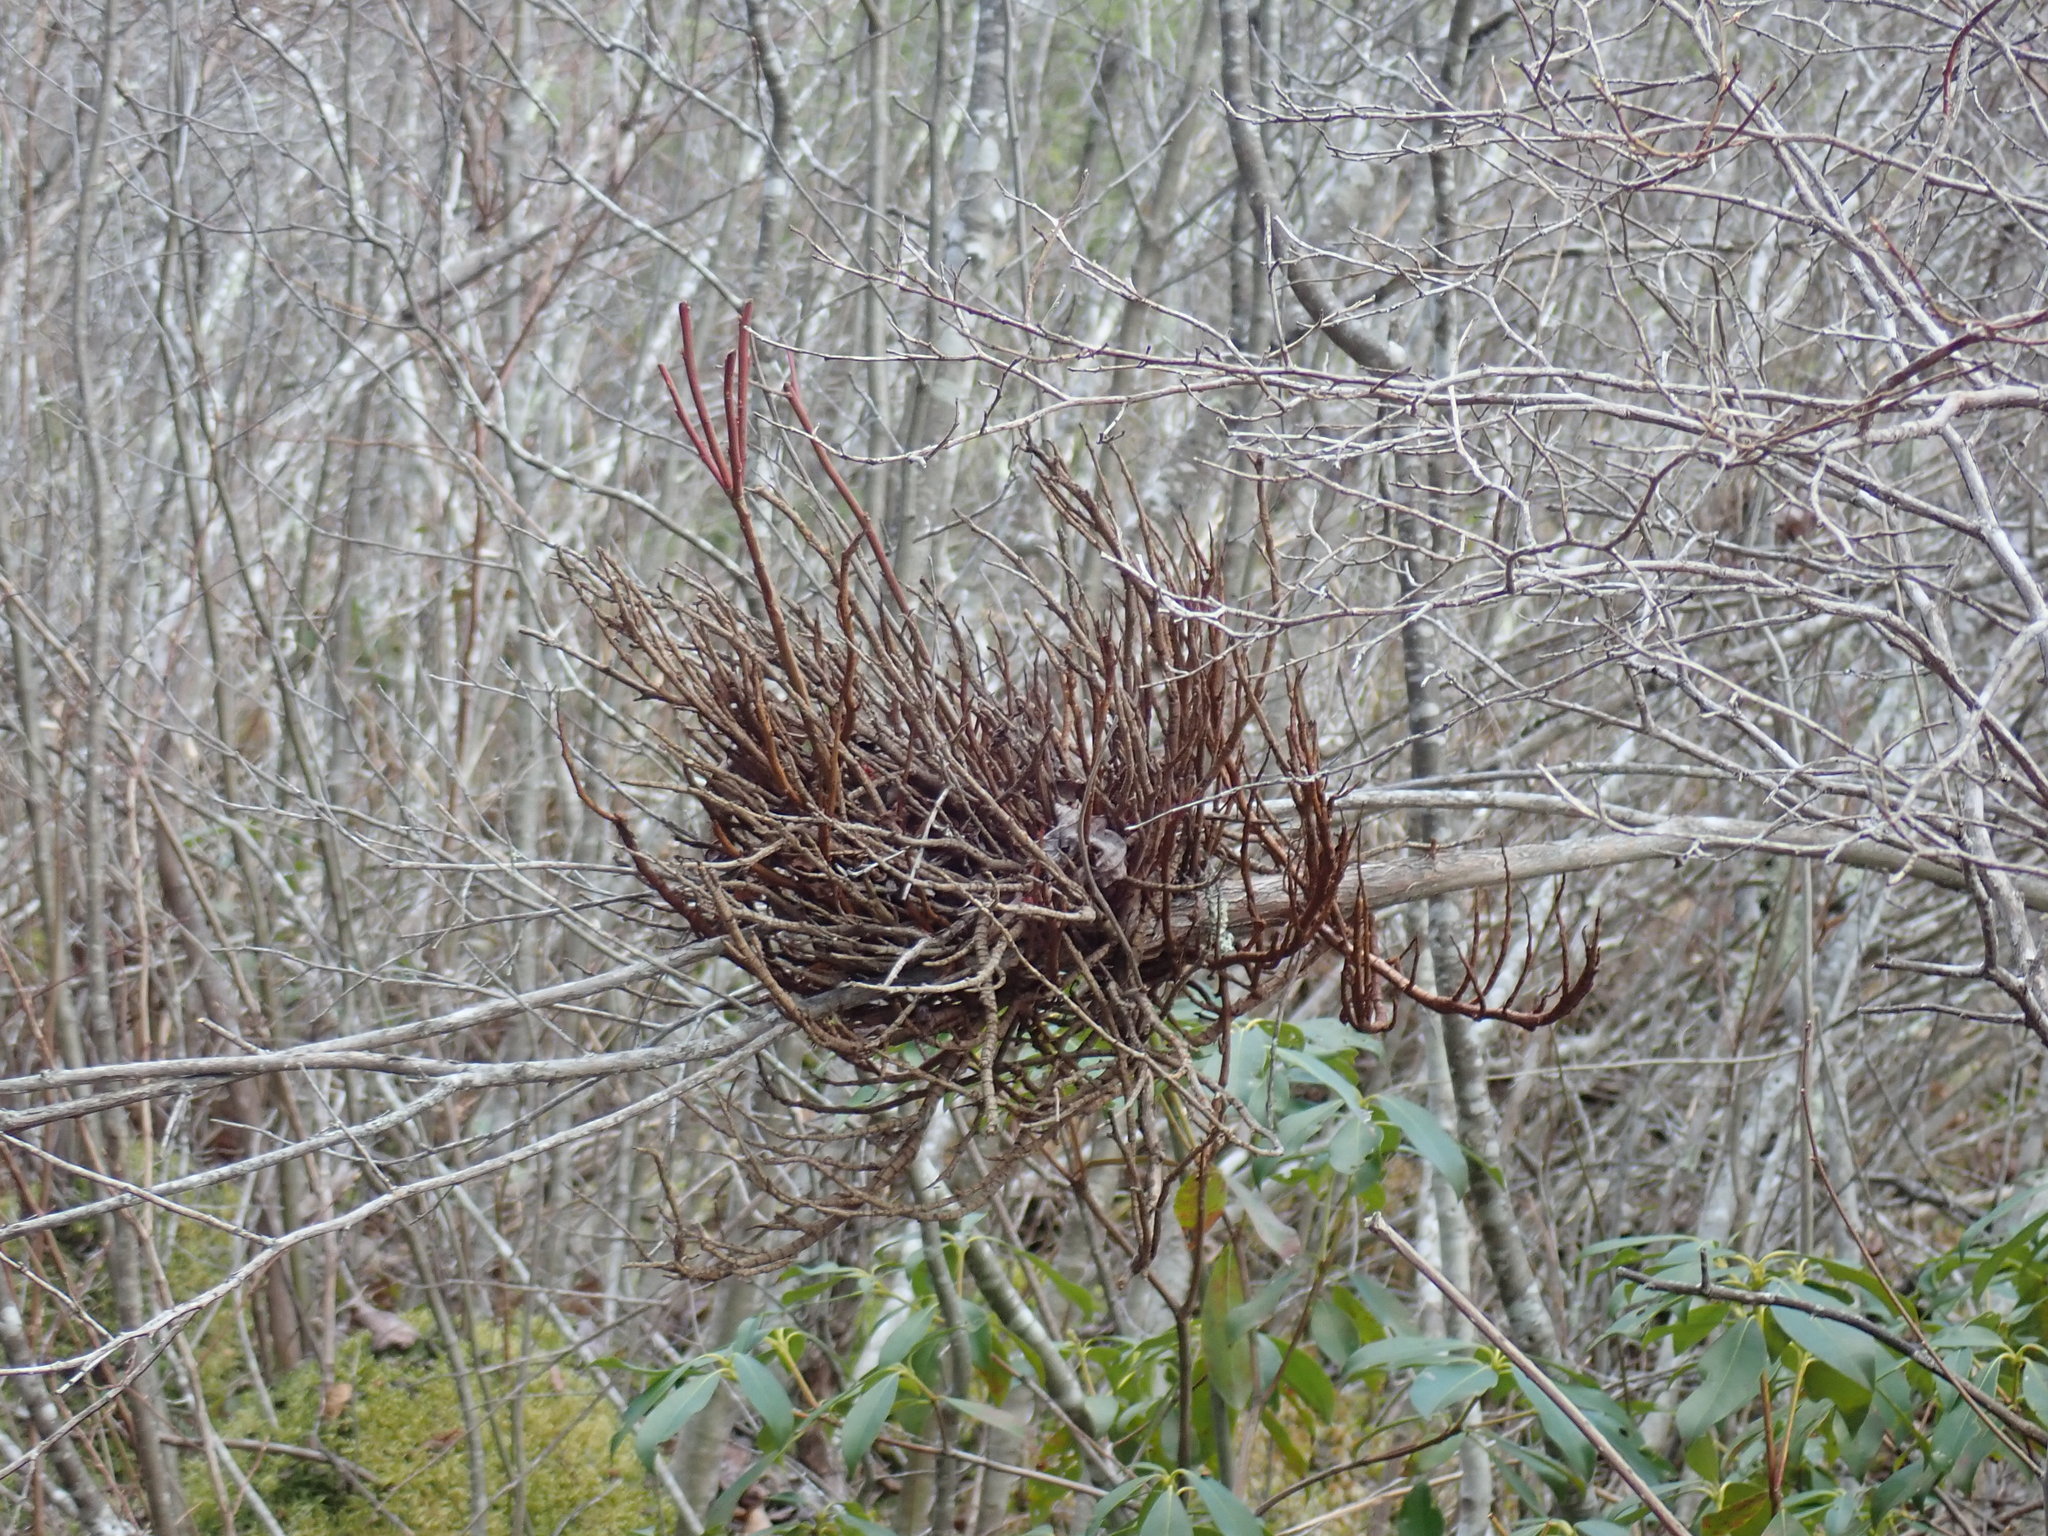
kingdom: Fungi
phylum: Basidiomycota
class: Pucciniomycetes
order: Pucciniales
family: Pucciniastraceae
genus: Calyptospora
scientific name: Calyptospora columnaris
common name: Huckleberry broom rust fungus
